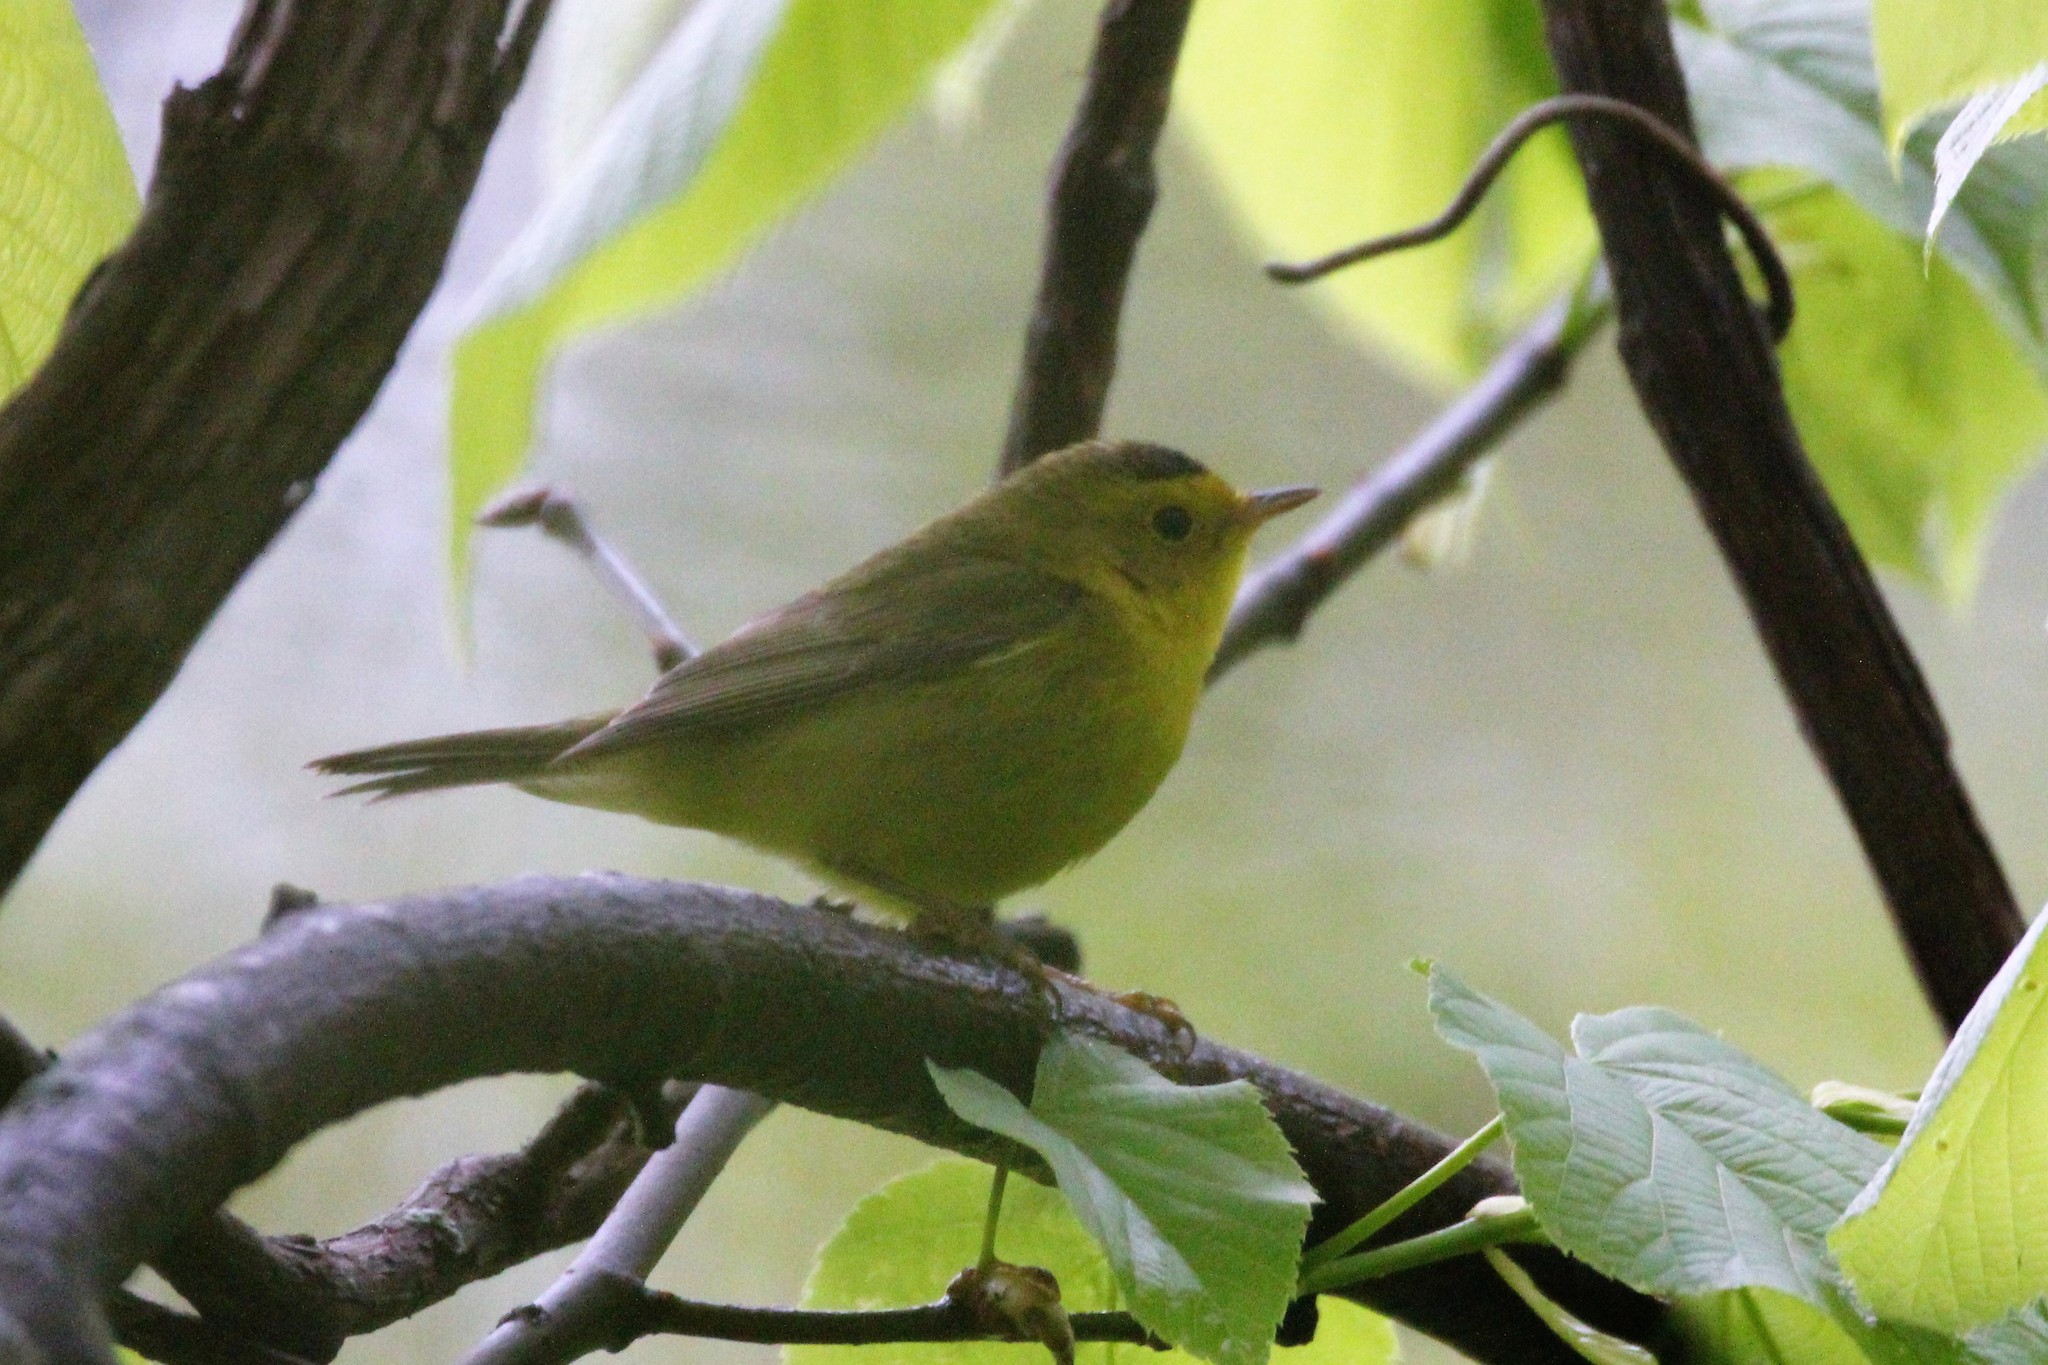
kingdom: Animalia
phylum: Chordata
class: Aves
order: Passeriformes
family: Parulidae
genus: Cardellina
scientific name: Cardellina pusilla
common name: Wilson's warbler
